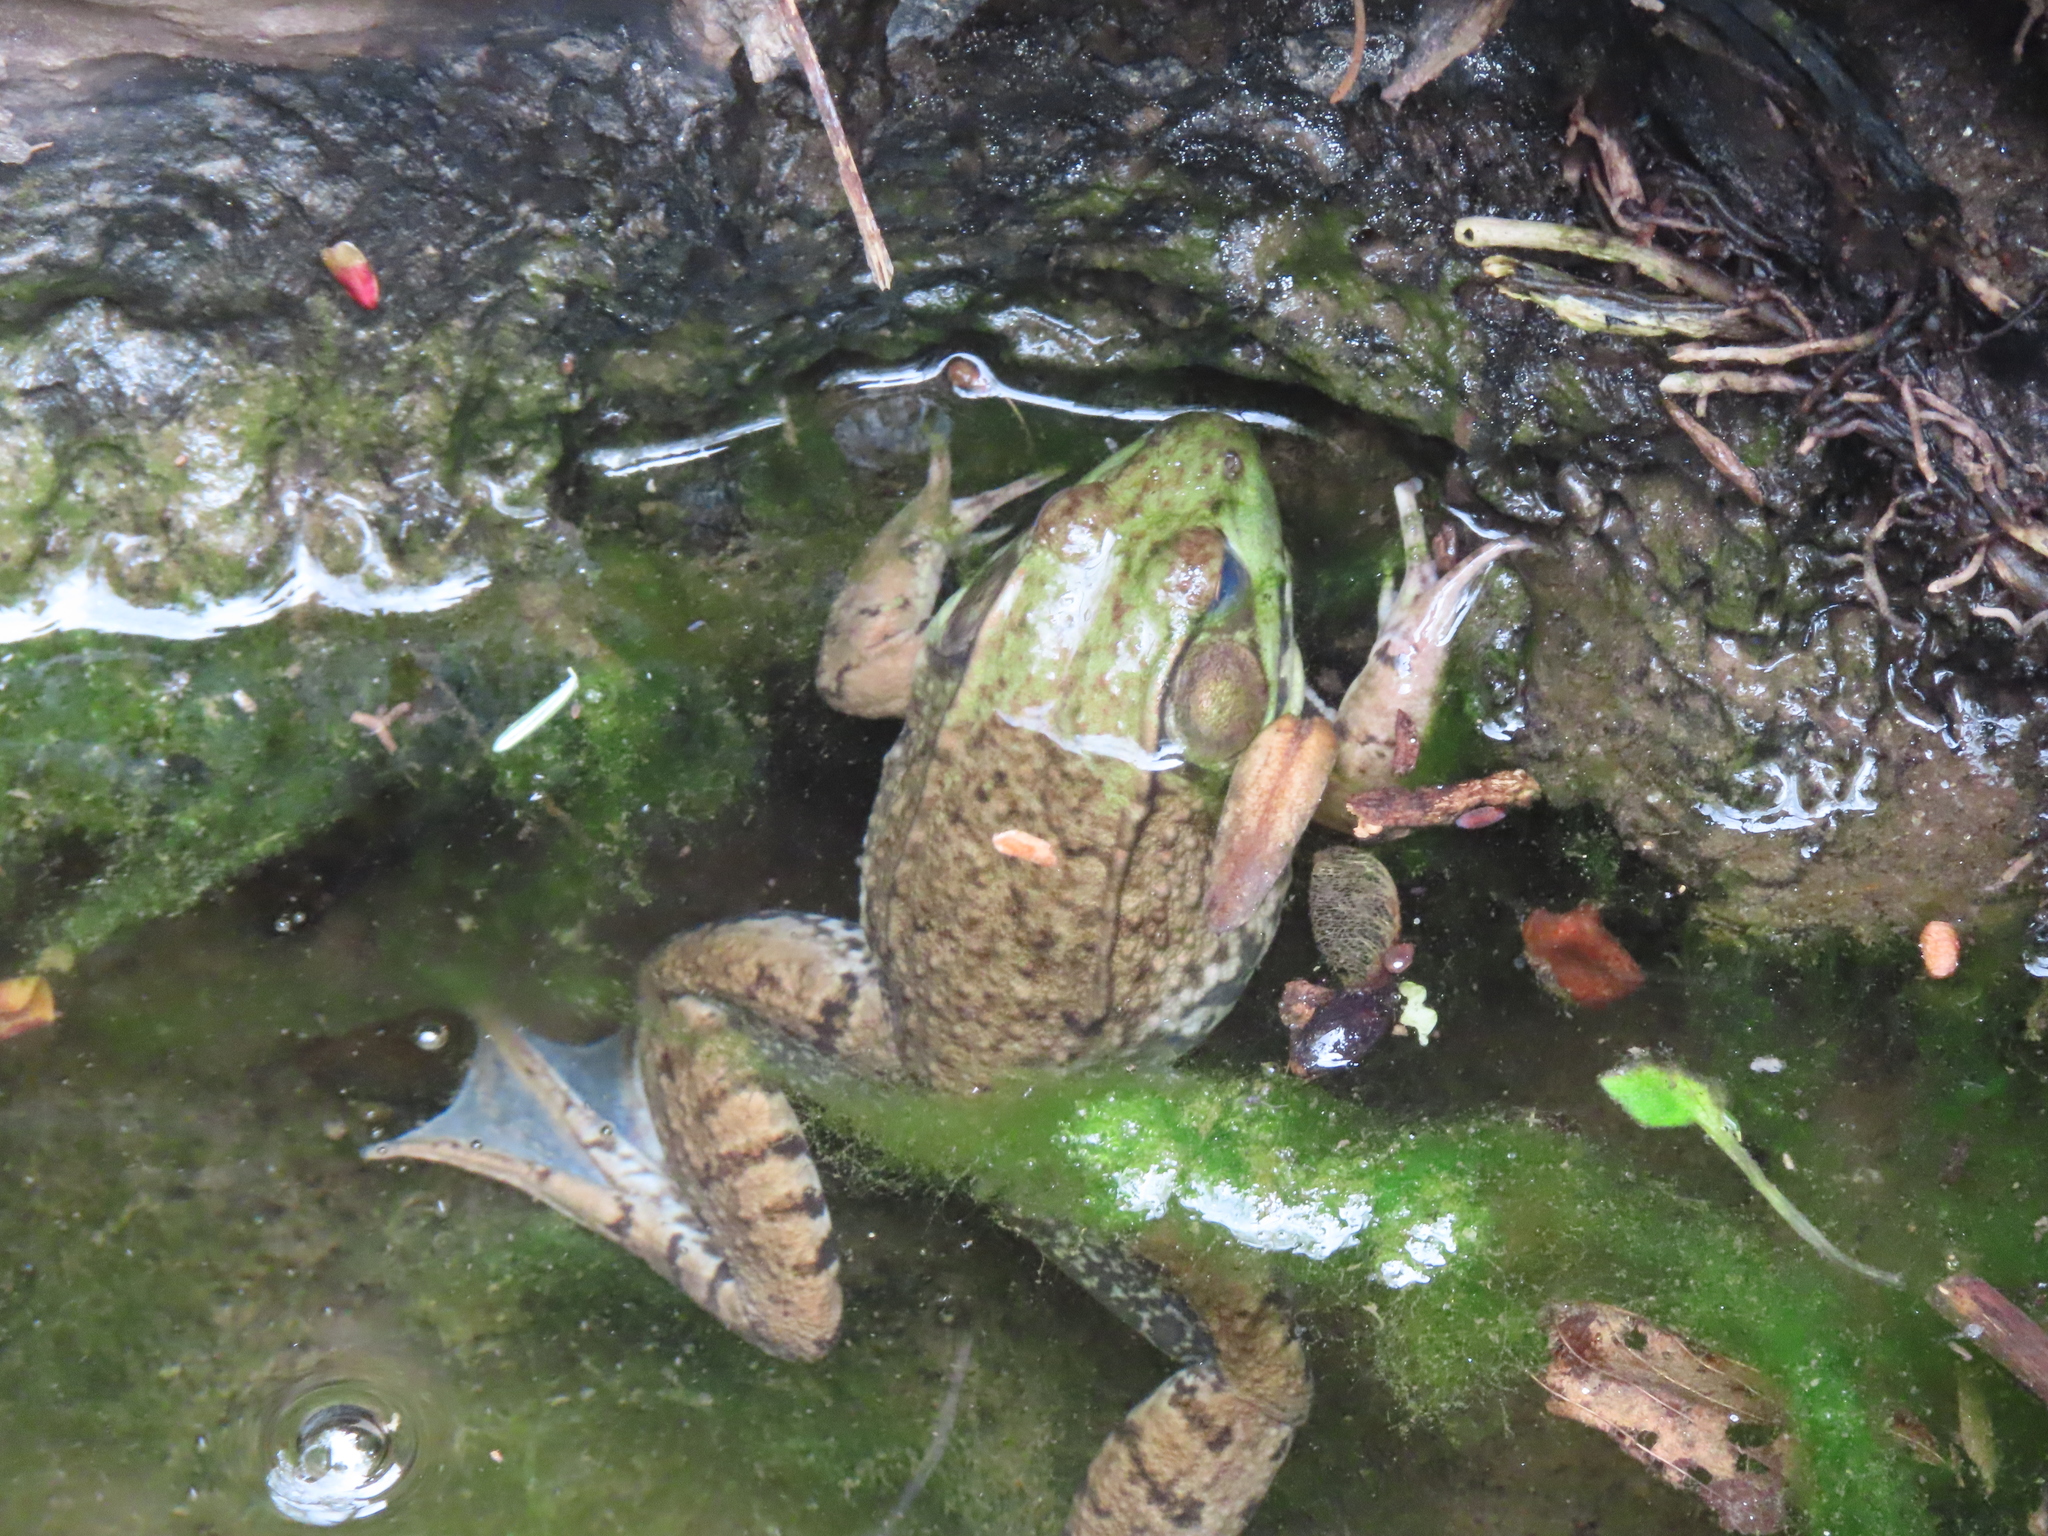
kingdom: Animalia
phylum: Chordata
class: Amphibia
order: Anura
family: Ranidae
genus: Lithobates
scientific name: Lithobates clamitans
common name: Green frog
